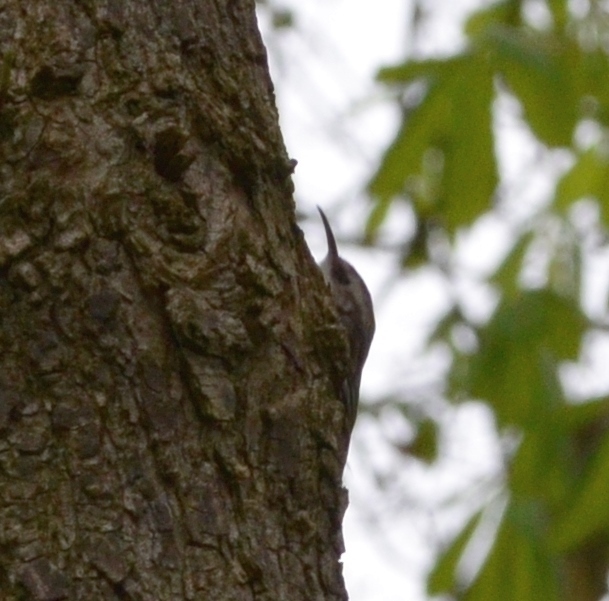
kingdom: Animalia
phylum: Chordata
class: Aves
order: Passeriformes
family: Certhiidae
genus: Certhia
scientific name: Certhia brachydactyla
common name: Short-toed treecreeper
